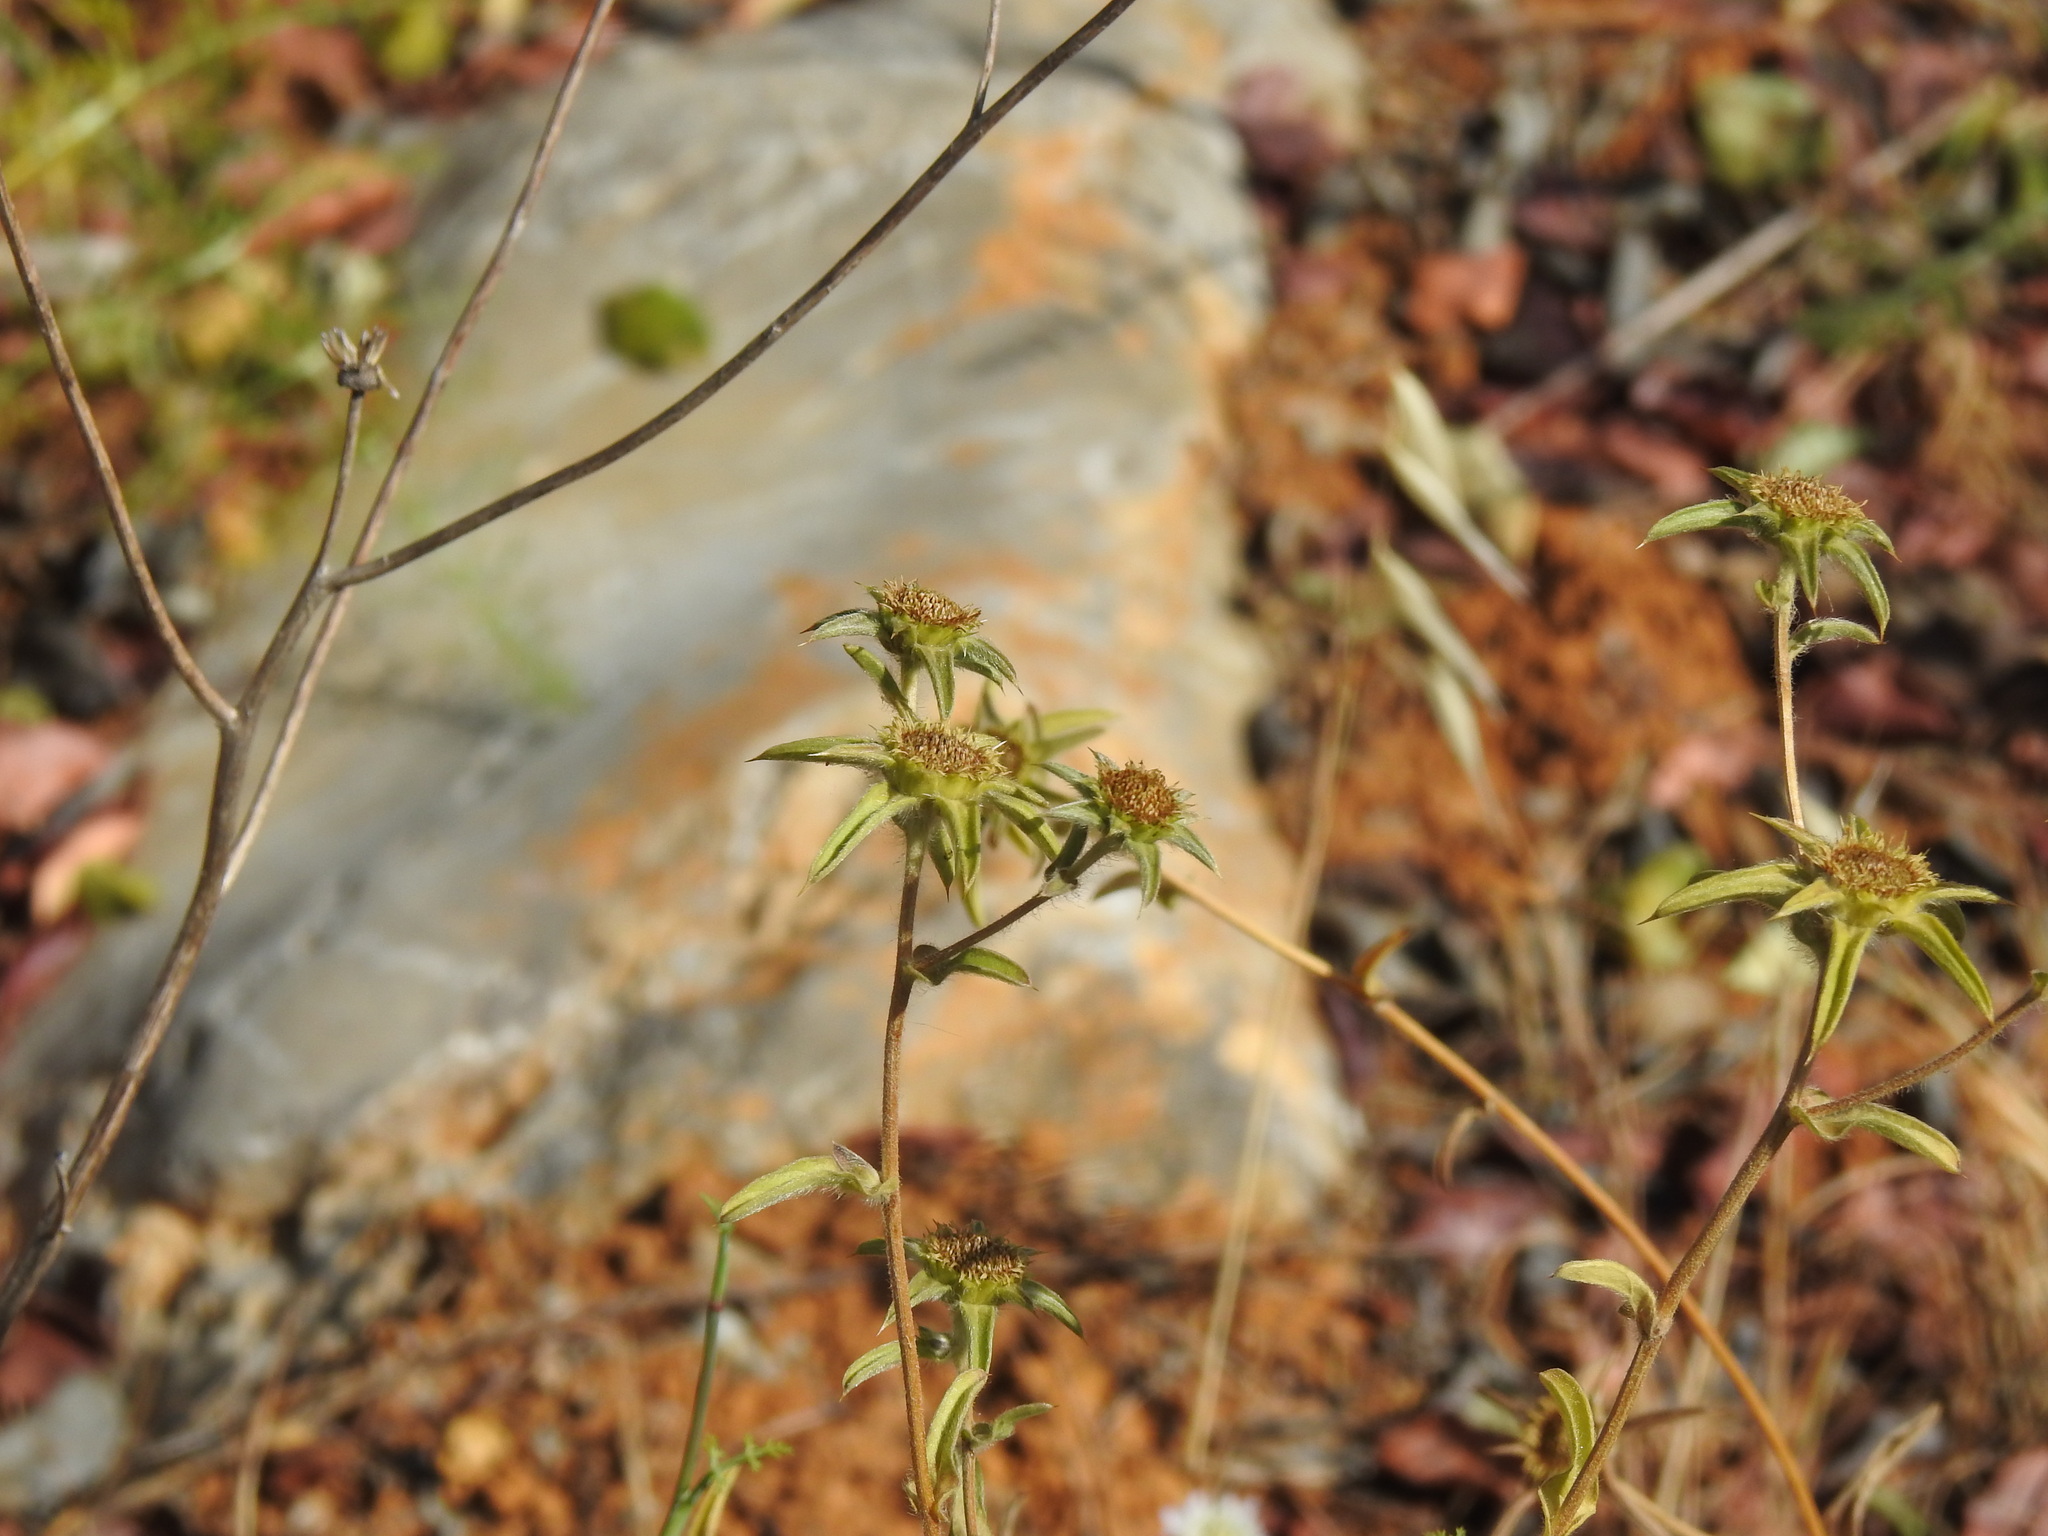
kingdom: Plantae
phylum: Tracheophyta
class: Magnoliopsida
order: Asterales
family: Asteraceae
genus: Pallenis
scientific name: Pallenis spinosa
